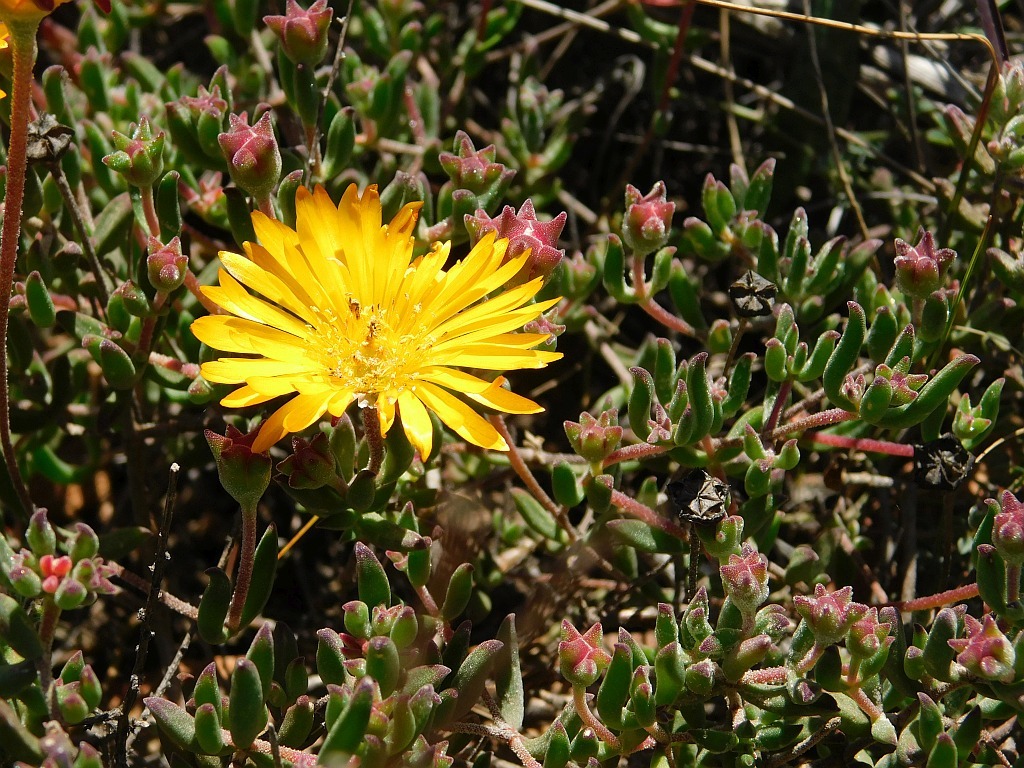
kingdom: Plantae
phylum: Tracheophyta
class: Magnoliopsida
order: Caryophyllales
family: Aizoaceae
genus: Drosanthemum
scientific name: Drosanthemum flavum
